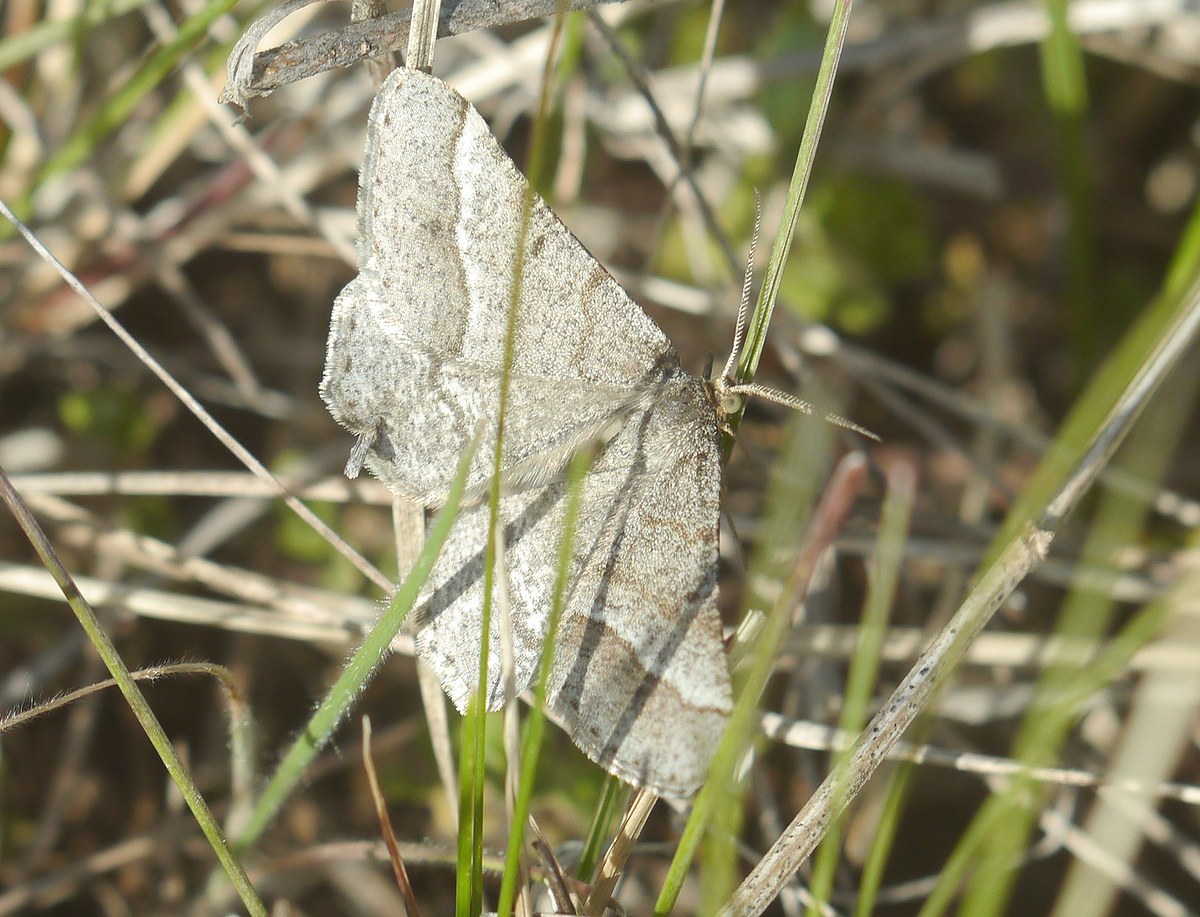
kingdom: Animalia
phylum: Arthropoda
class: Insecta
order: Lepidoptera
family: Geometridae
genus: Tephrina
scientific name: Tephrina murinaria
